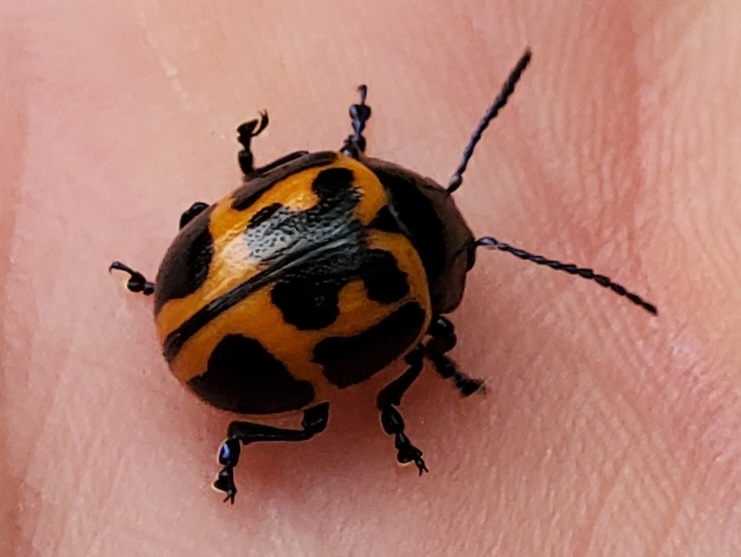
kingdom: Animalia
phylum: Arthropoda
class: Insecta
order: Coleoptera
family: Chrysomelidae
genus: Labidomera
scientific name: Labidomera clivicollis
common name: Swamp milkweed leaf beetle
